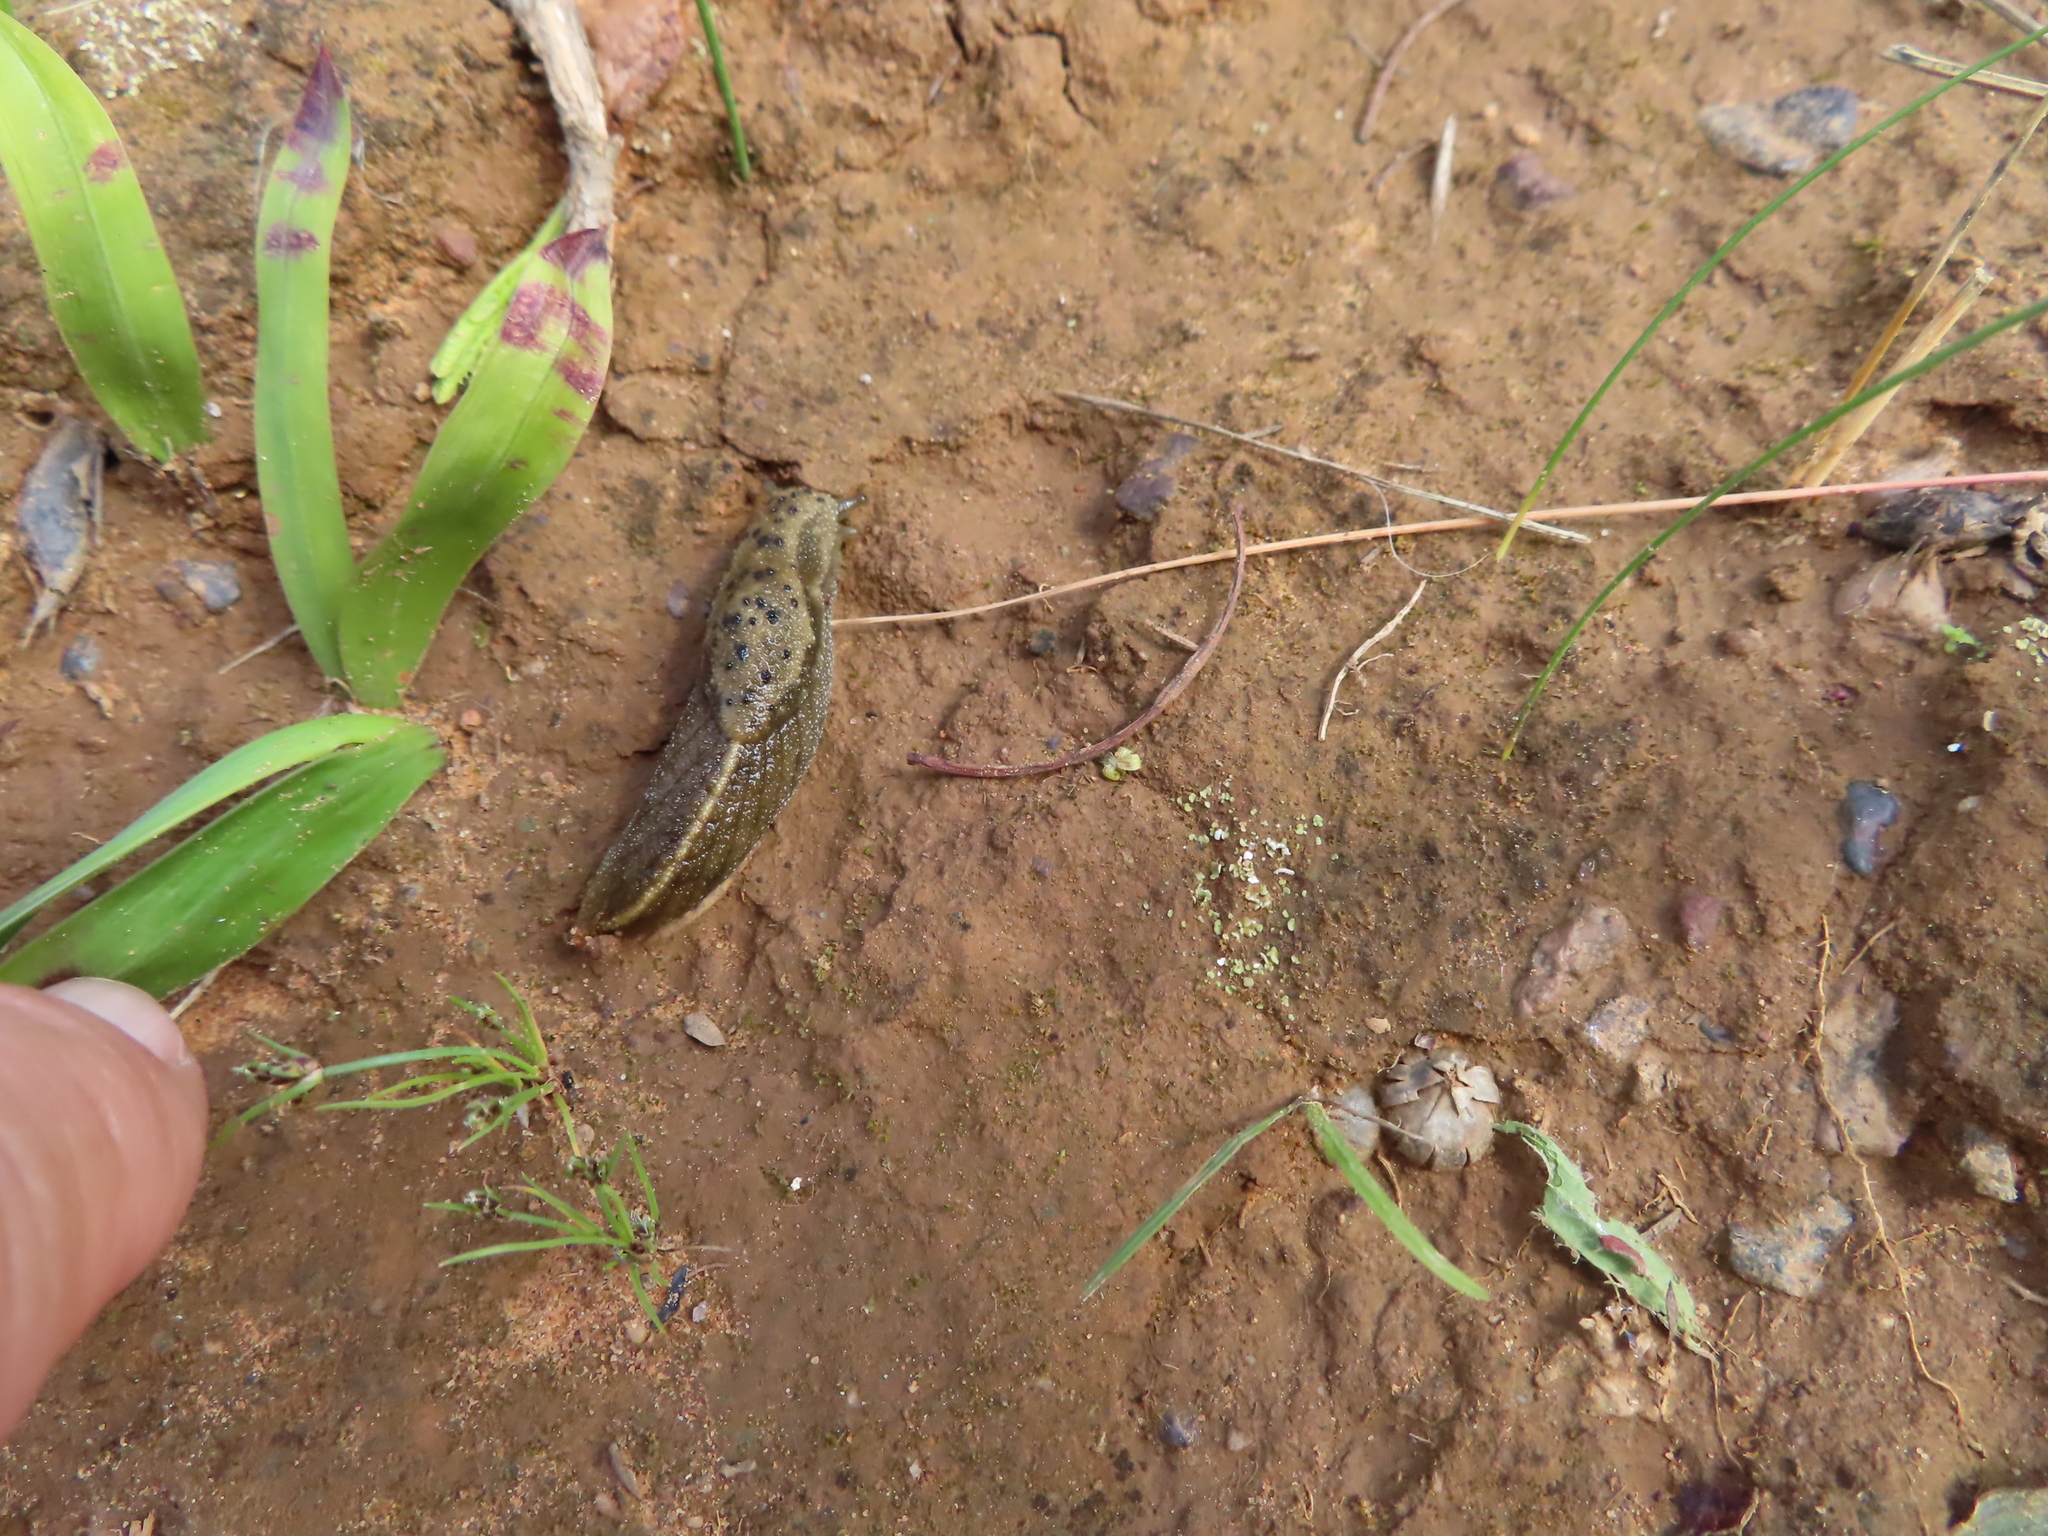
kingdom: Animalia
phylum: Mollusca
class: Gastropoda
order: Stylommatophora
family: Oopeltidae
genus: Oopelta
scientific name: Oopelta nigropunctata
